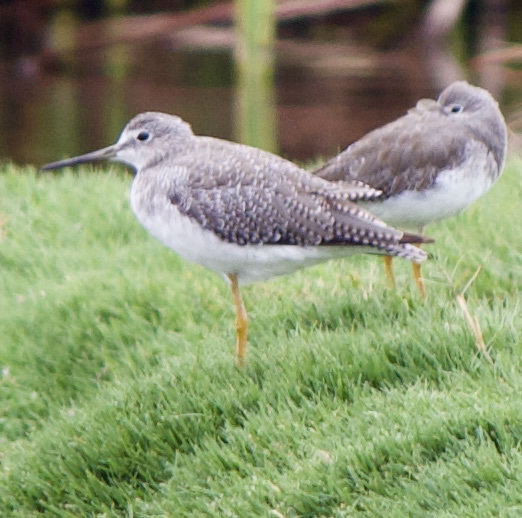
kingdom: Animalia
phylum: Chordata
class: Aves
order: Charadriiformes
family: Scolopacidae
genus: Tringa
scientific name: Tringa melanoleuca
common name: Greater yellowlegs
